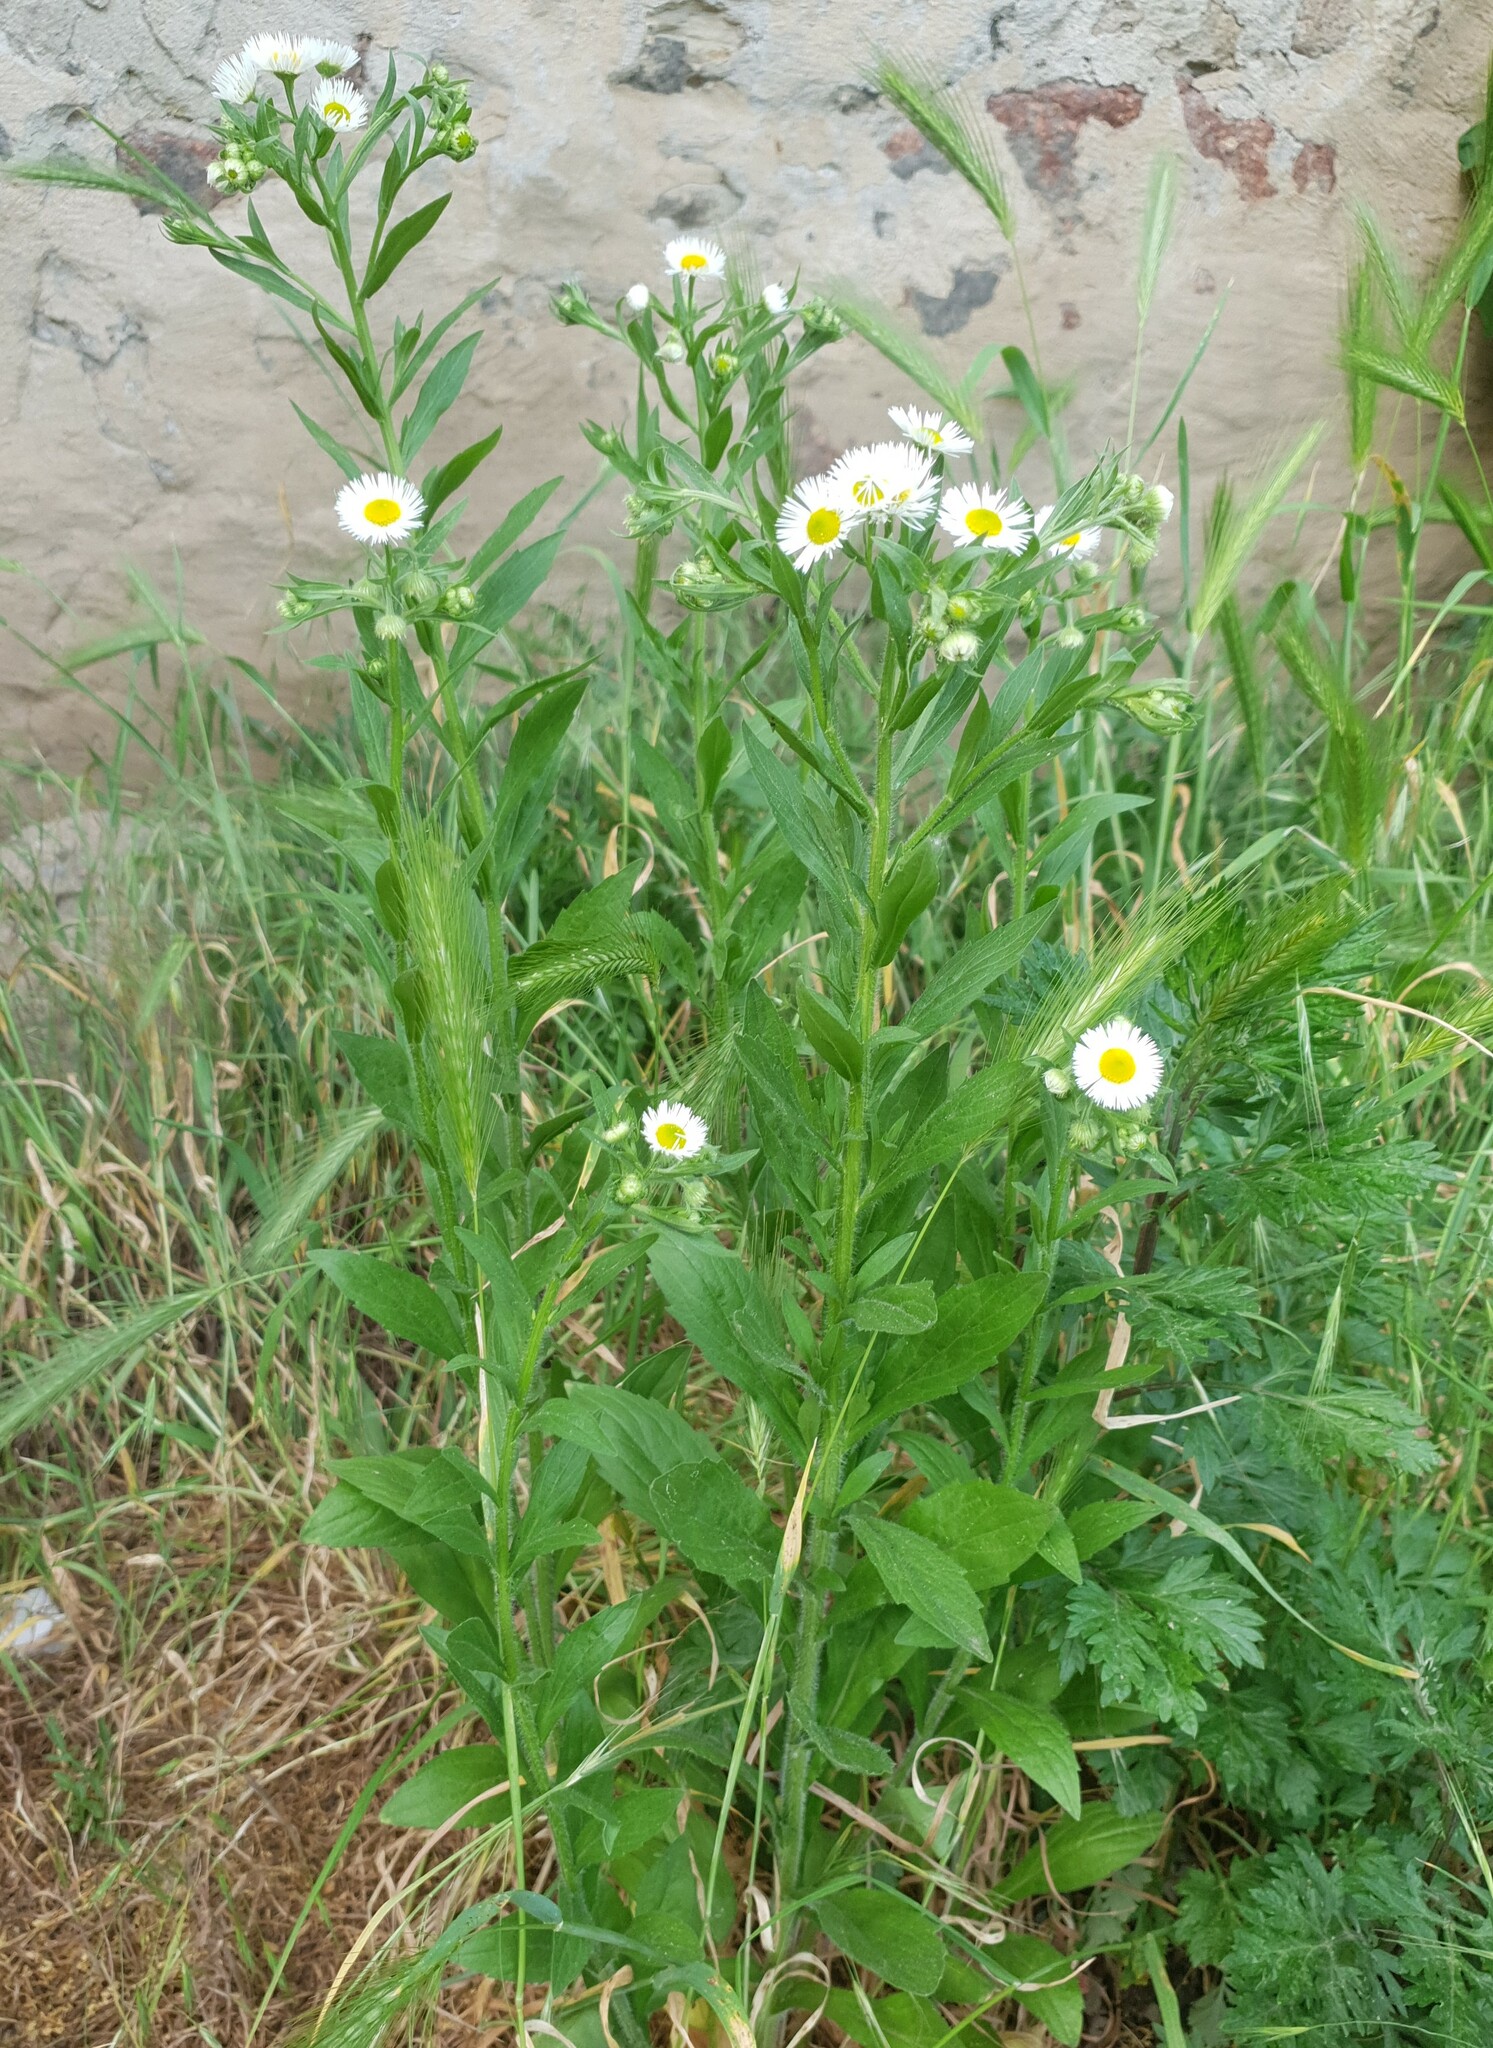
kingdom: Plantae
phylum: Tracheophyta
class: Magnoliopsida
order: Asterales
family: Asteraceae
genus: Erigeron
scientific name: Erigeron annuus
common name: Tall fleabane
